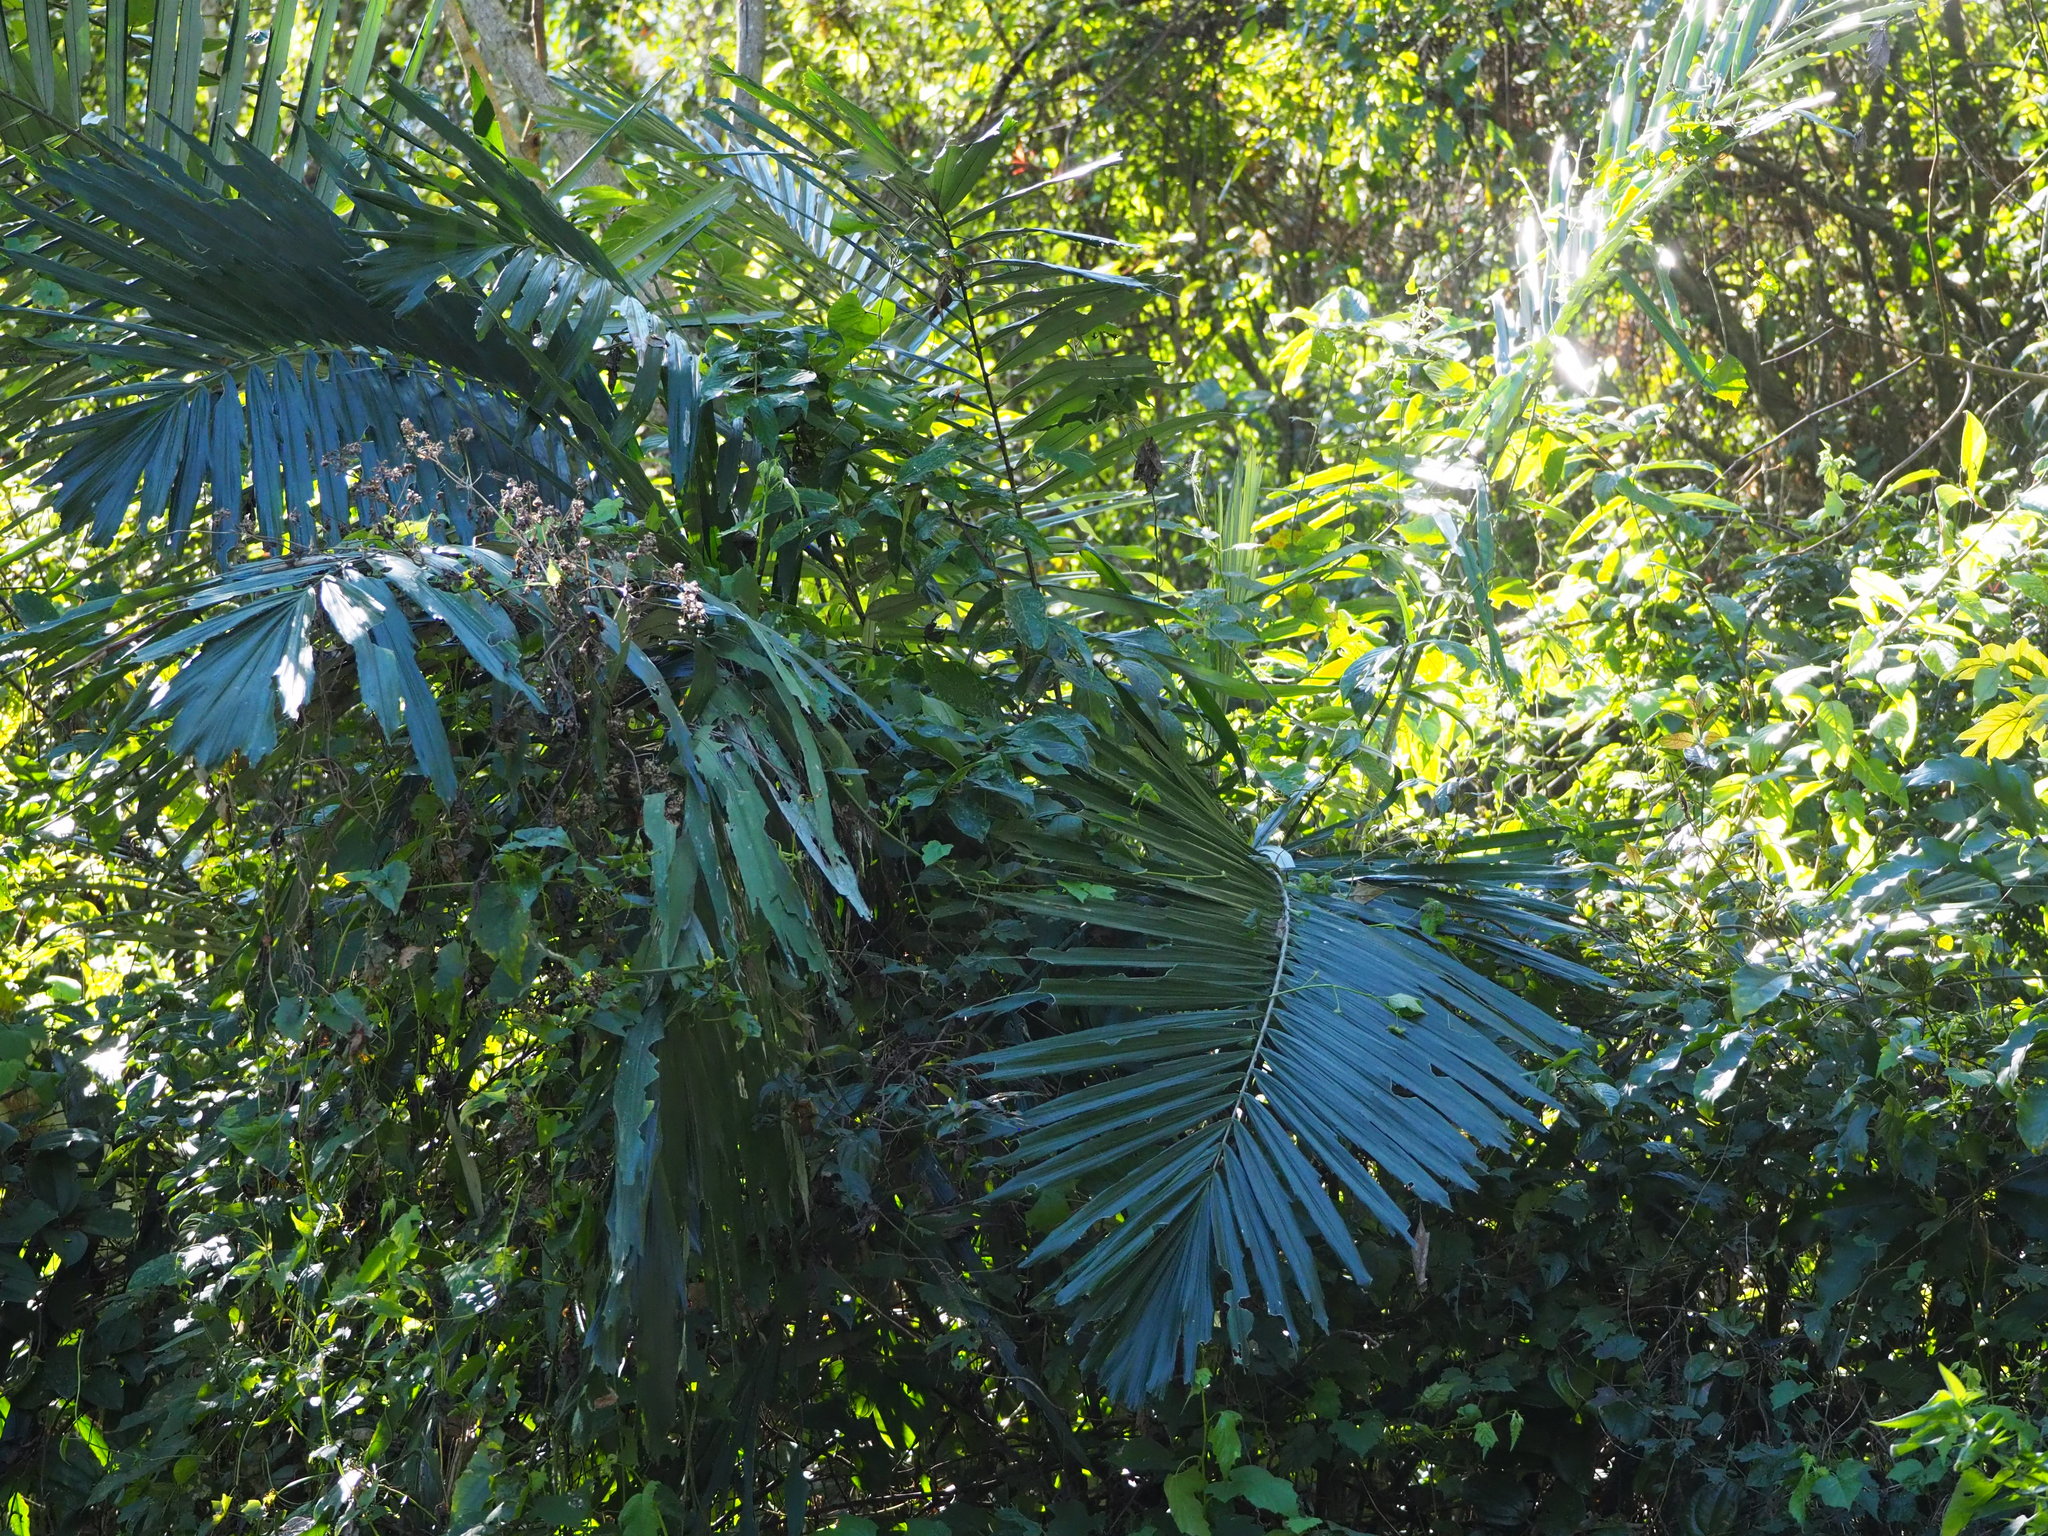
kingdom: Plantae
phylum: Tracheophyta
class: Liliopsida
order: Arecales
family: Arecaceae
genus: Arenga
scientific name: Arenga engleri
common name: Formosan sugar palm
